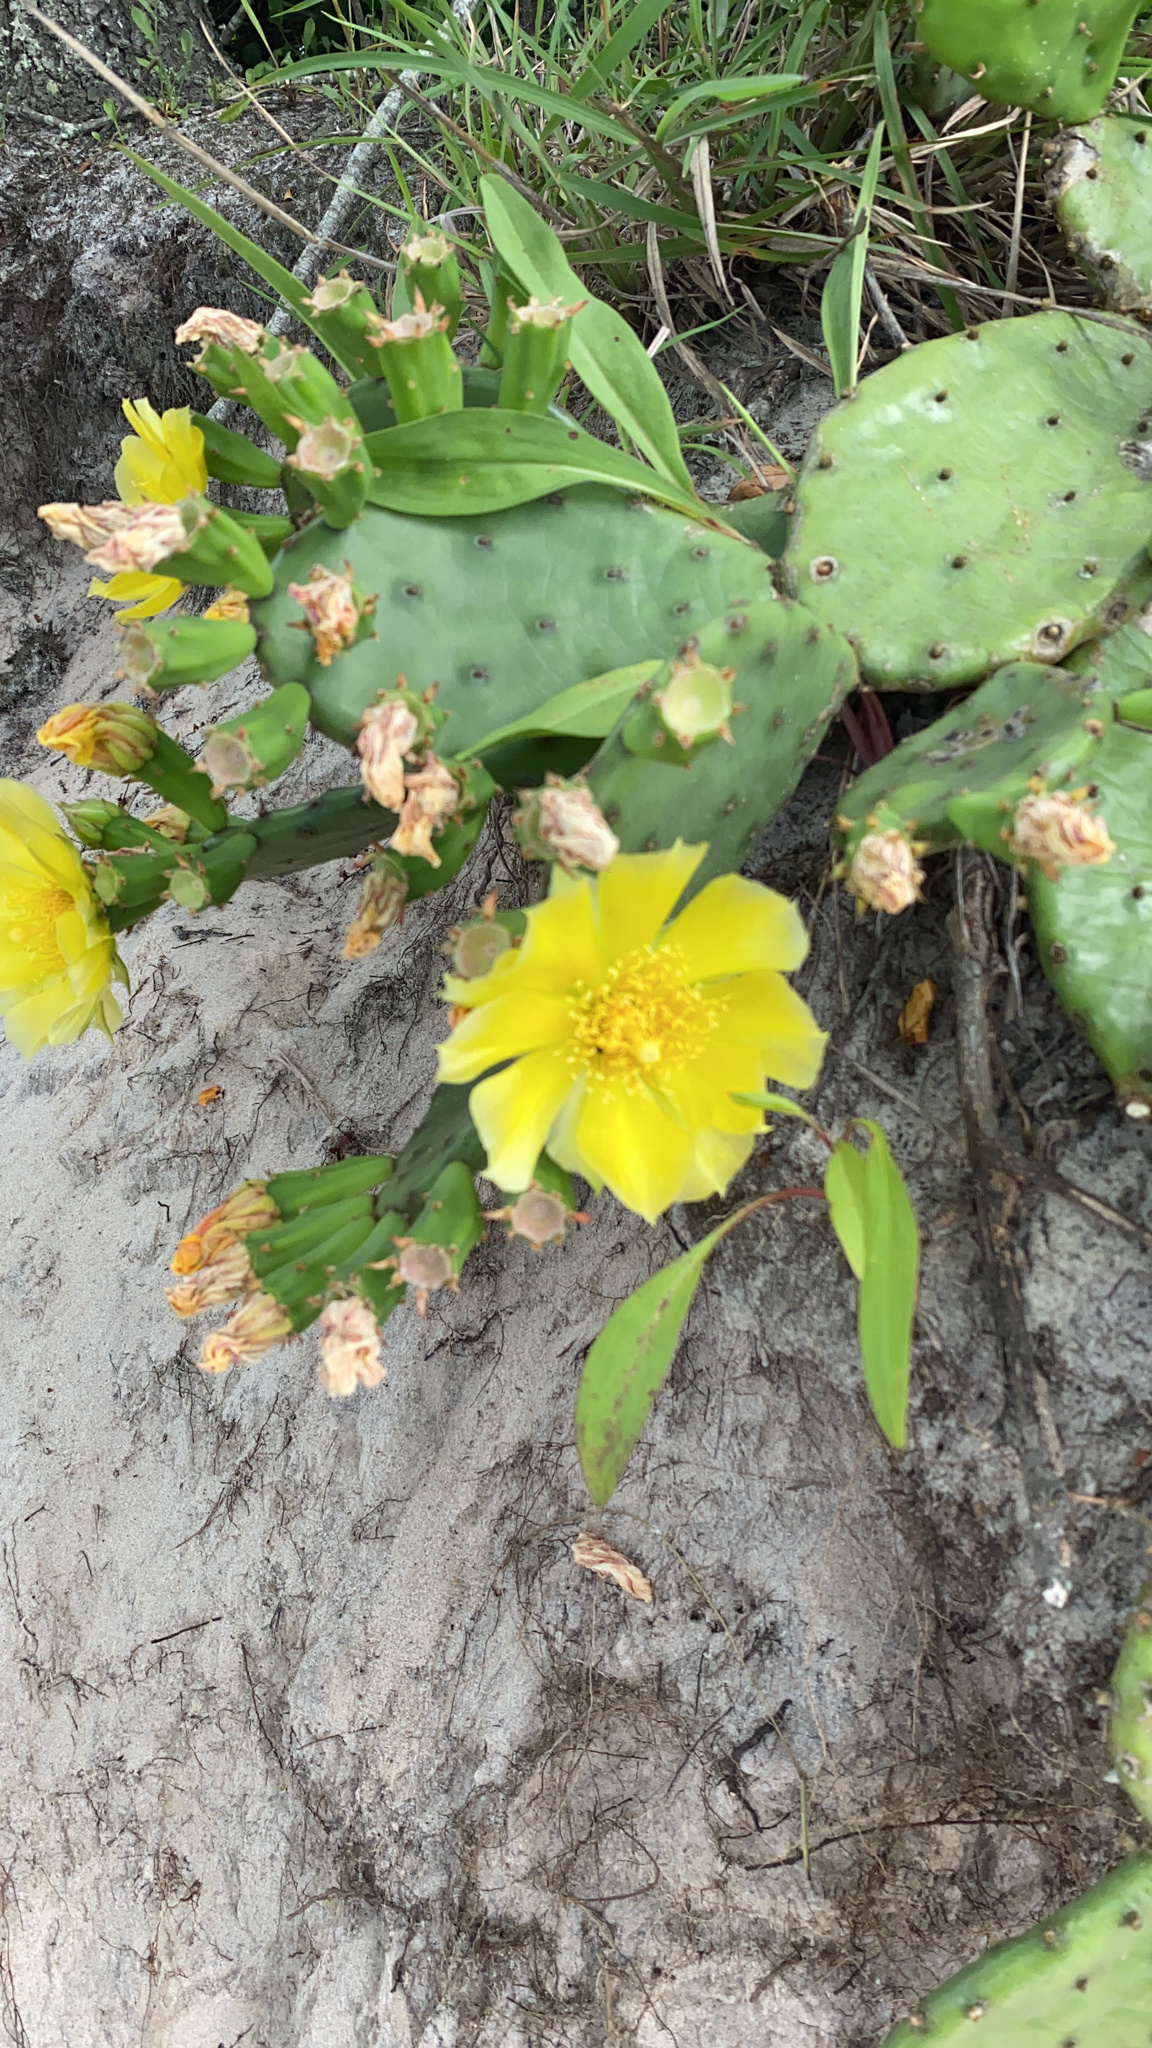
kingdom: Plantae
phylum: Tracheophyta
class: Magnoliopsida
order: Caryophyllales
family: Cactaceae
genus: Opuntia
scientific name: Opuntia humifusa
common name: Eastern prickly-pear
